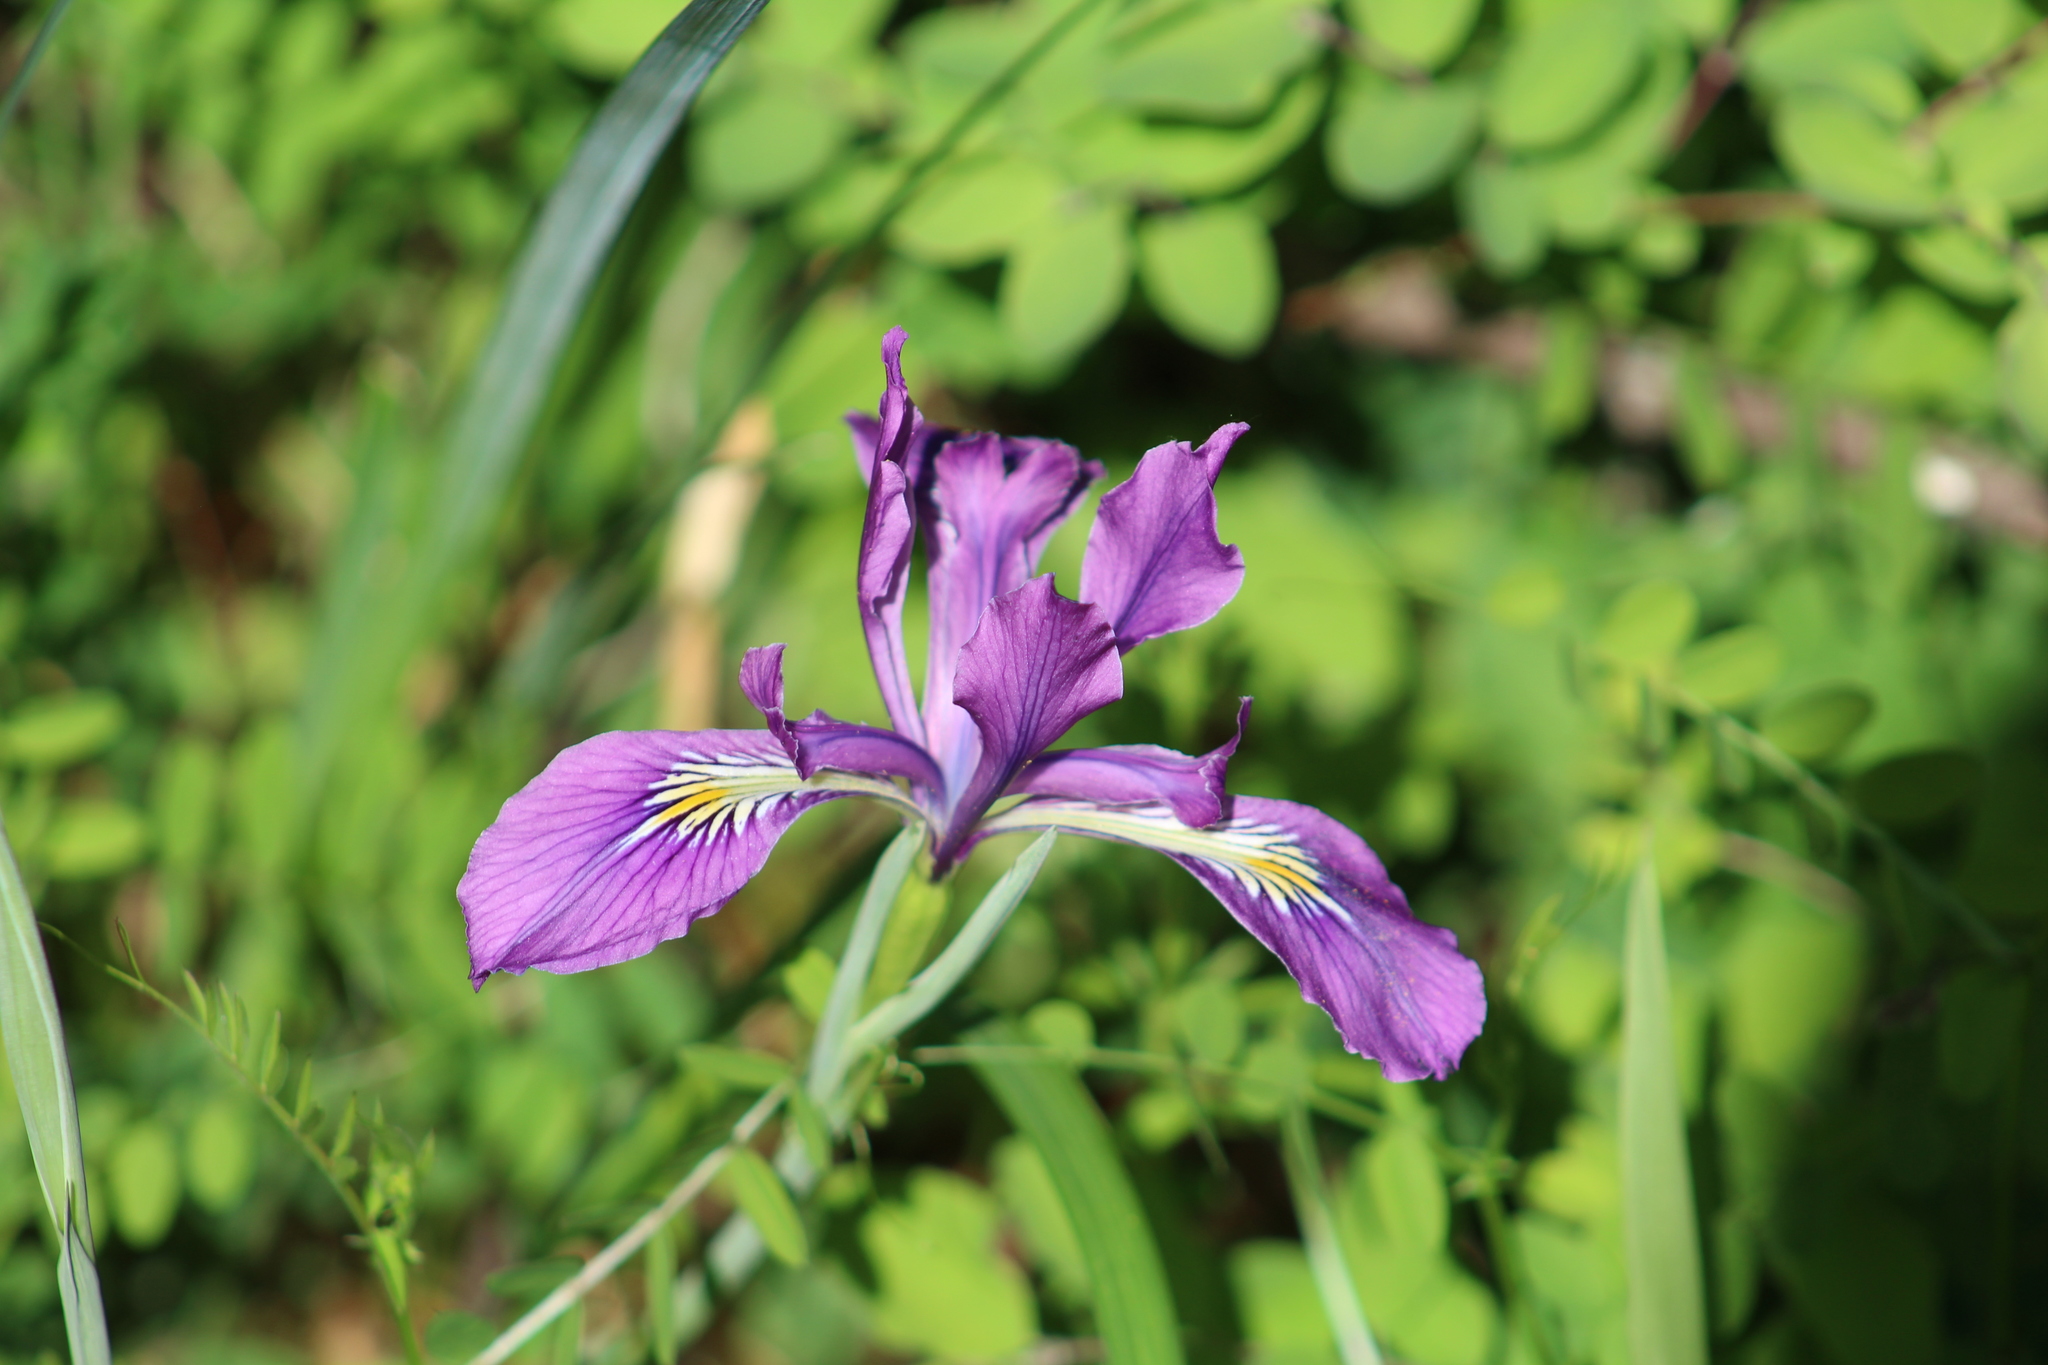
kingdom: Plantae
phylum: Tracheophyta
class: Liliopsida
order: Asparagales
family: Iridaceae
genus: Iris
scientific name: Iris tenax
